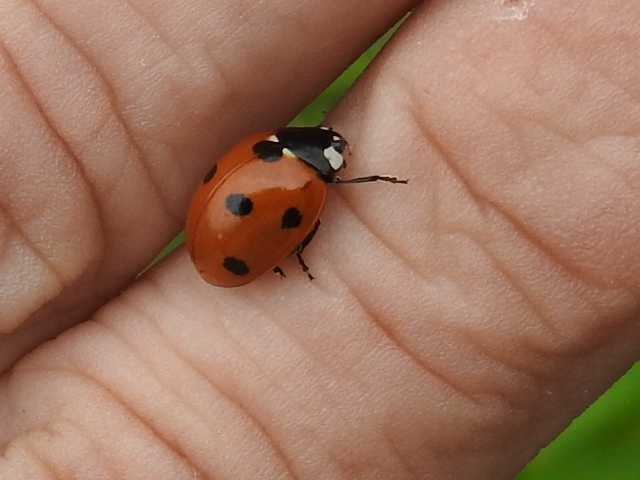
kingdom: Animalia
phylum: Arthropoda
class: Insecta
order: Coleoptera
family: Coccinellidae
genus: Coccinella
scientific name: Coccinella septempunctata
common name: Sevenspotted lady beetle
